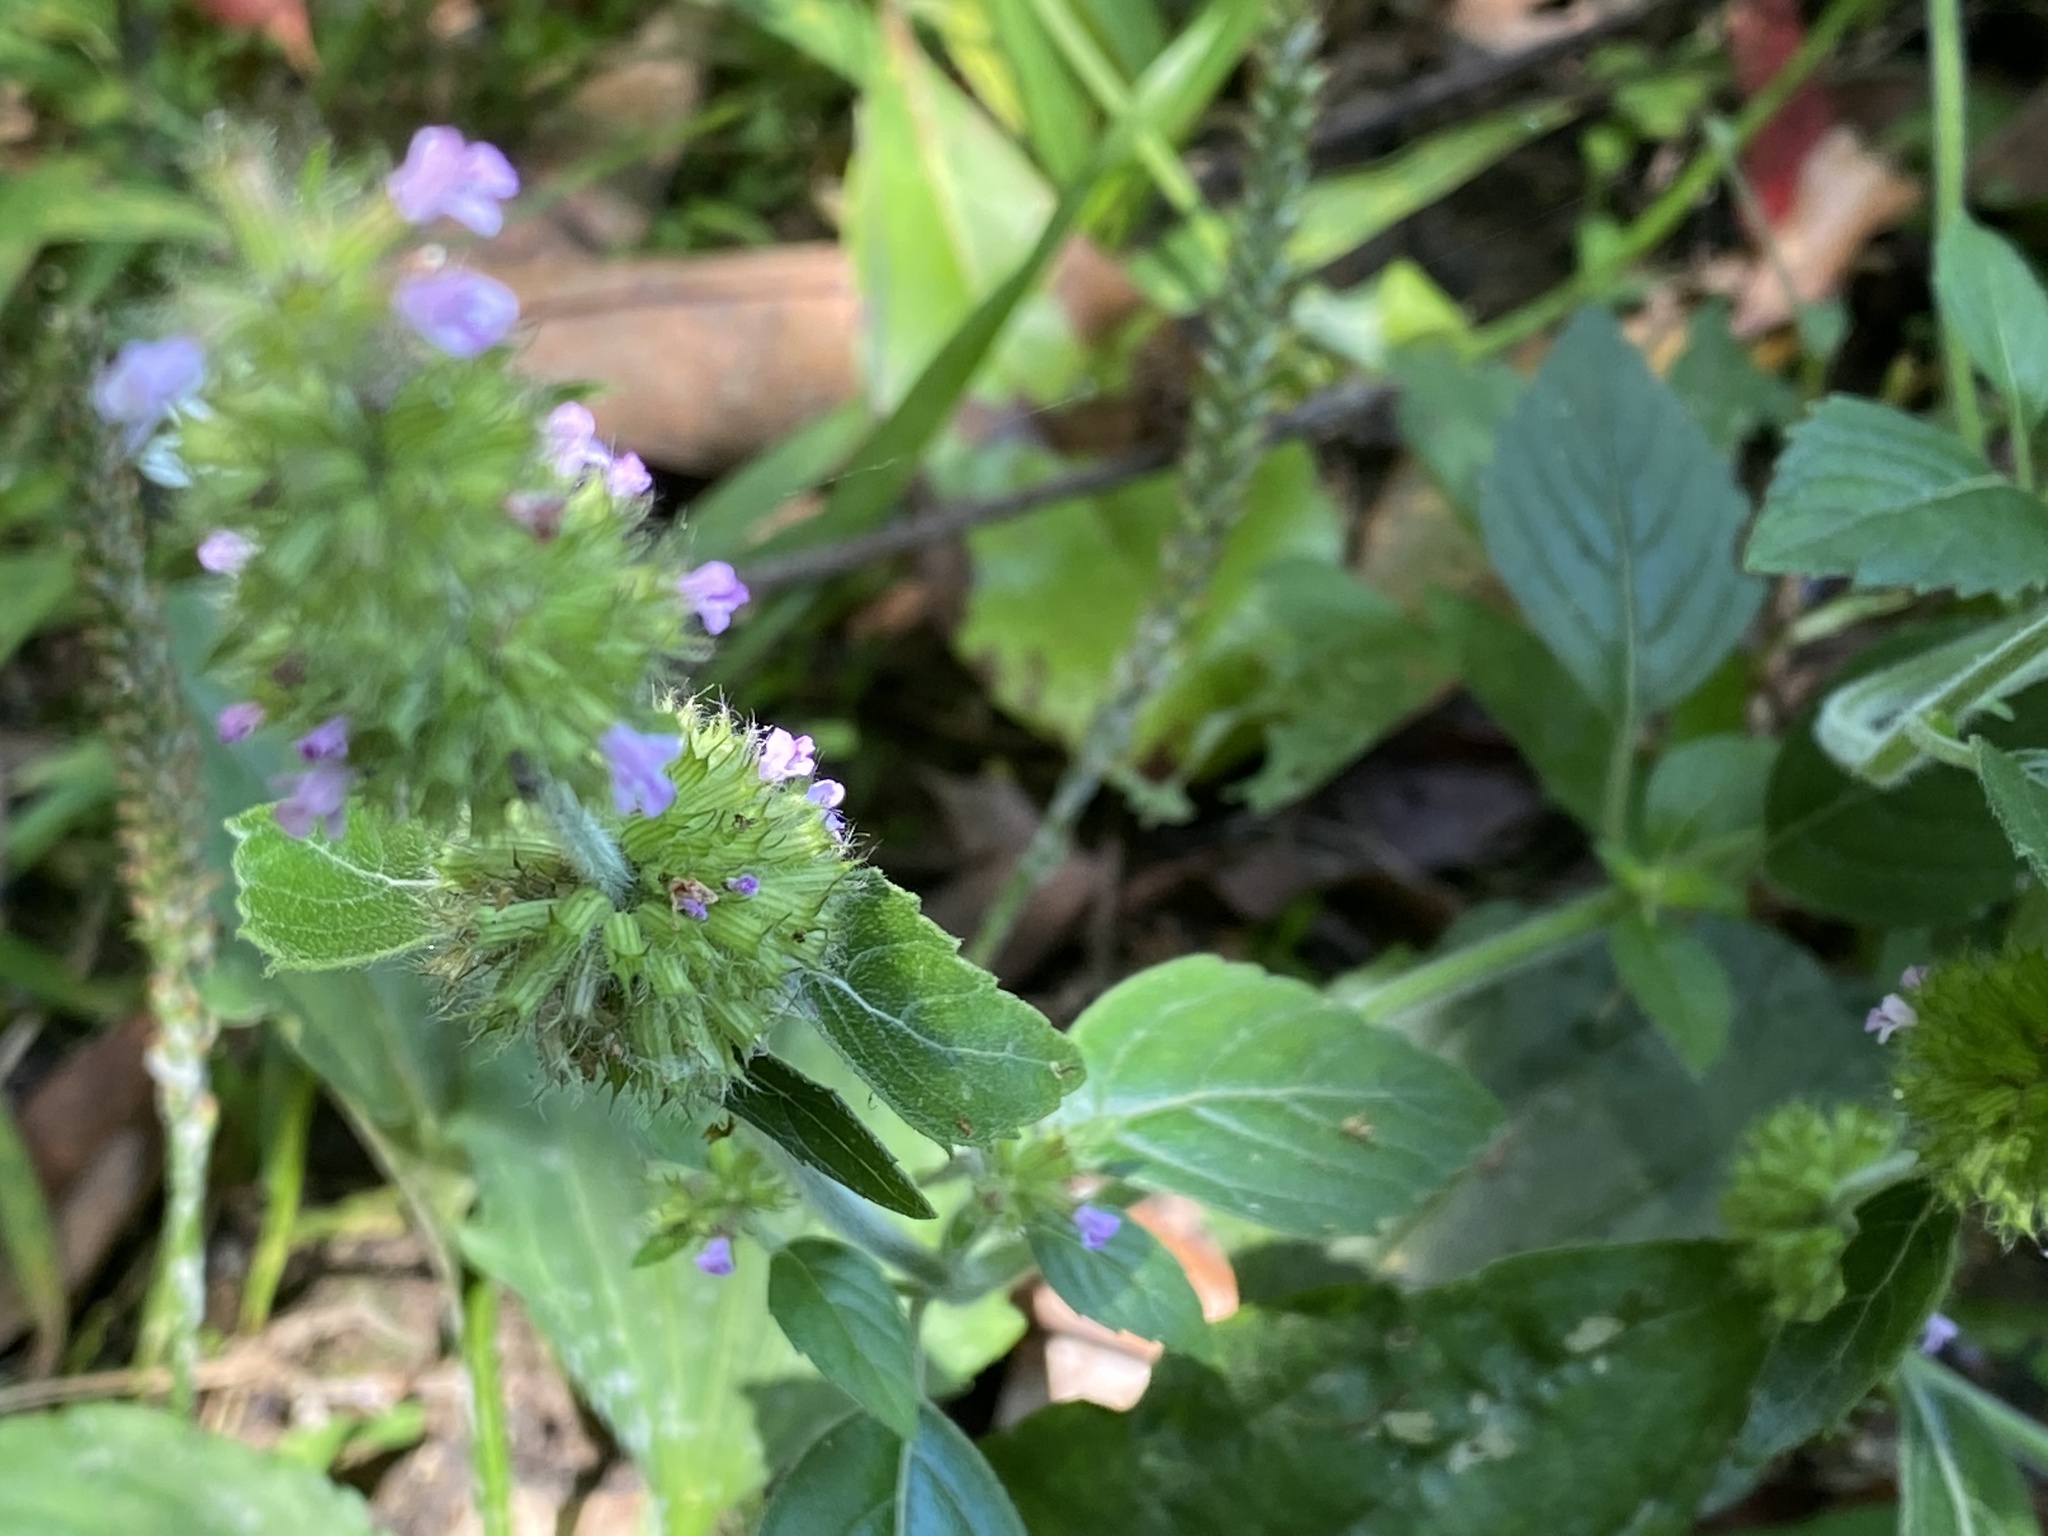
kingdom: Plantae
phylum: Tracheophyta
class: Magnoliopsida
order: Lamiales
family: Lamiaceae
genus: Clinopodium
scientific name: Clinopodium chinense
